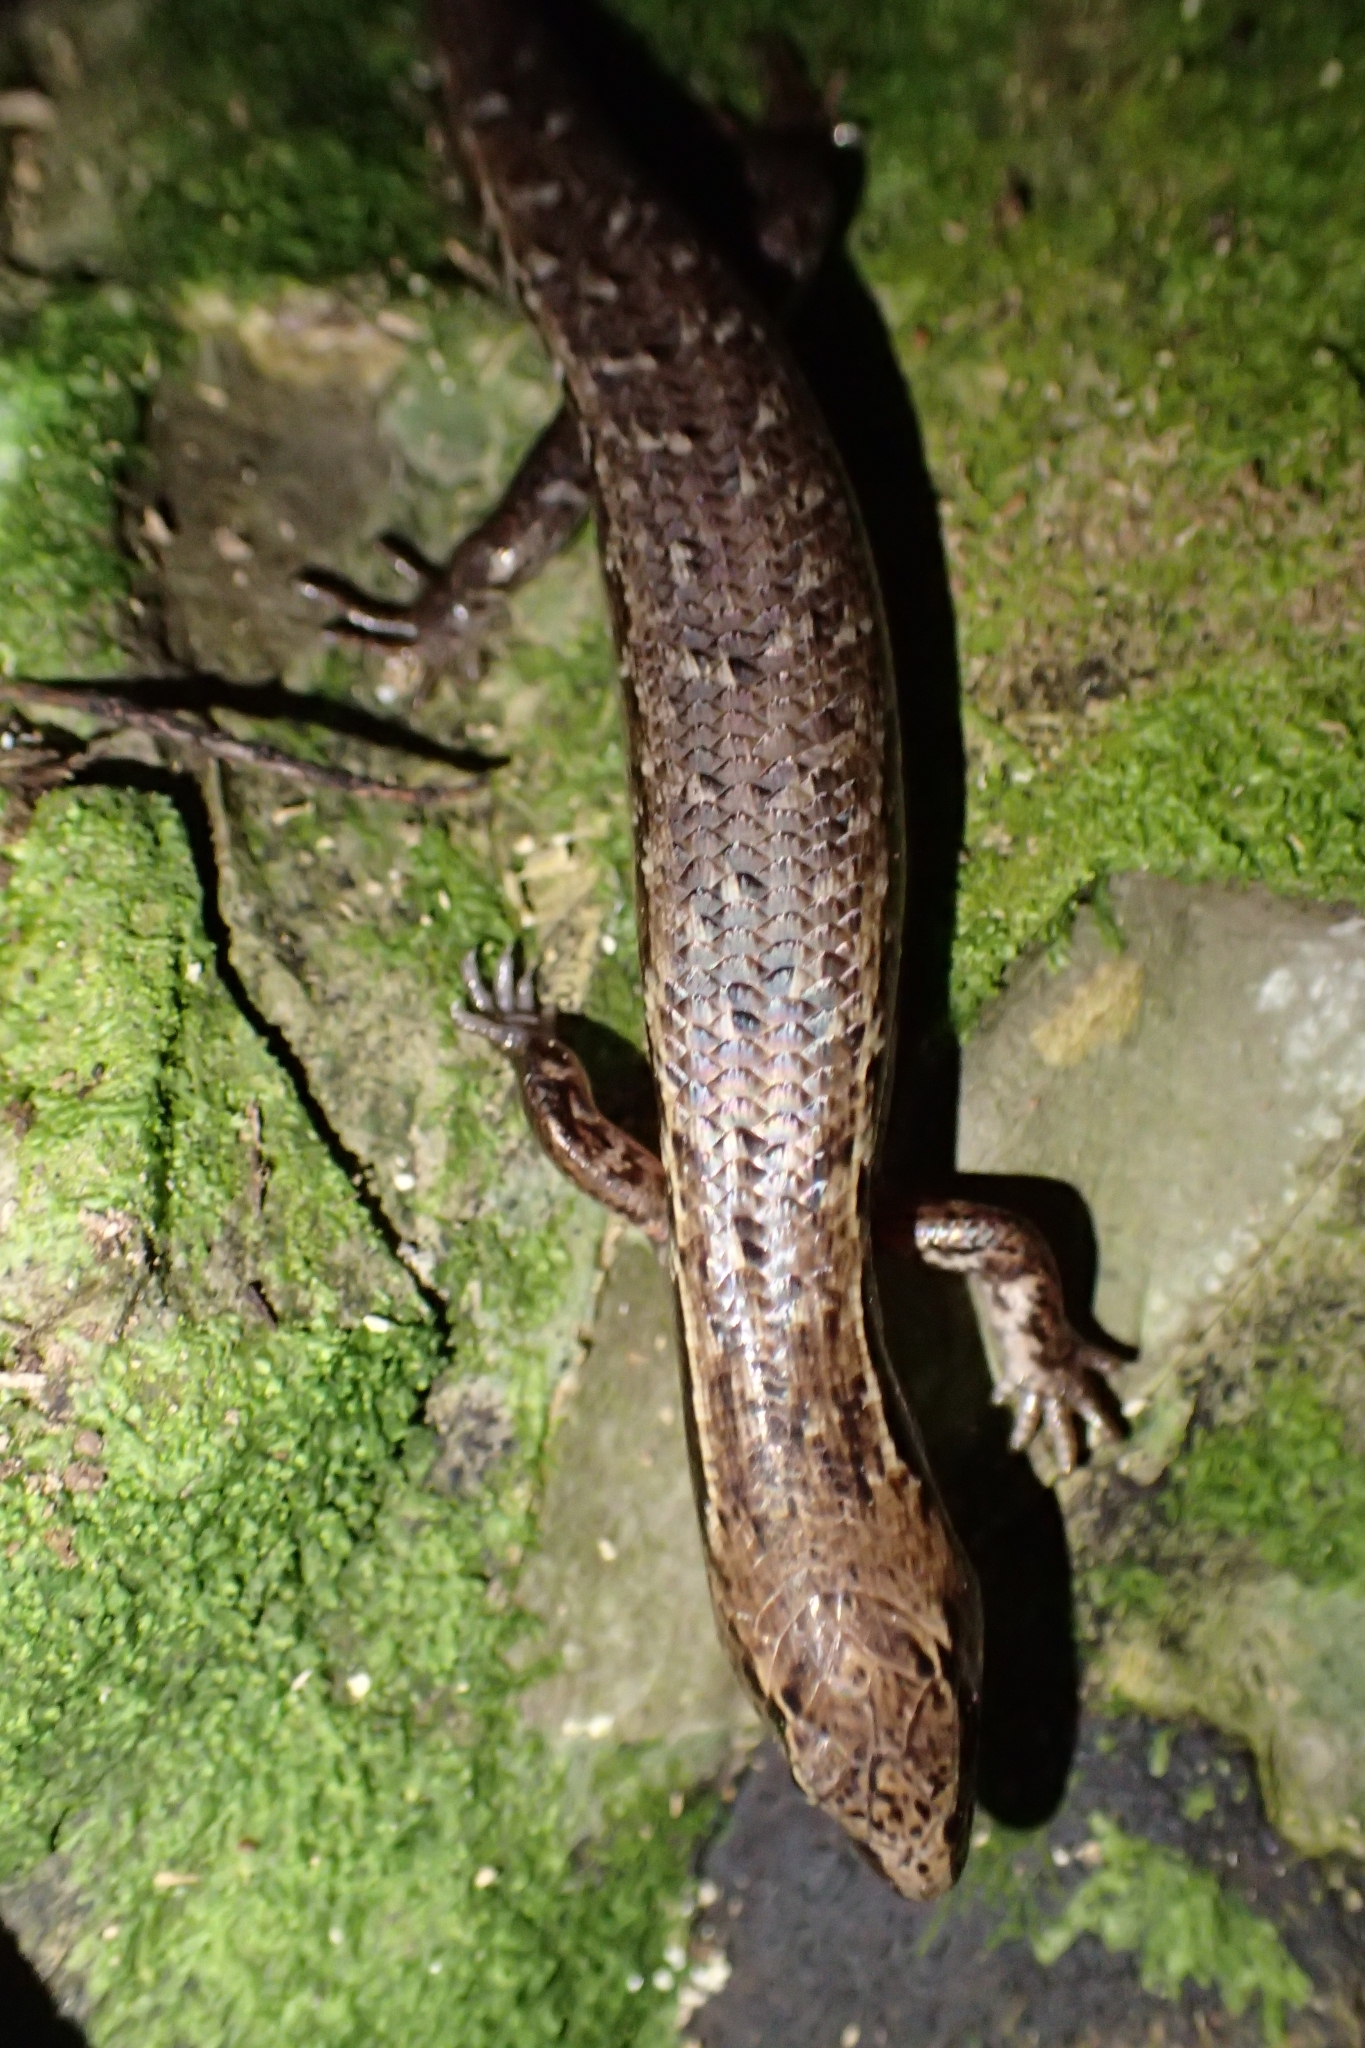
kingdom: Animalia
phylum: Chordata
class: Squamata
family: Scincidae
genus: Oligosoma
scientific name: Oligosoma ornatum
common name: Gray's ornate skink
